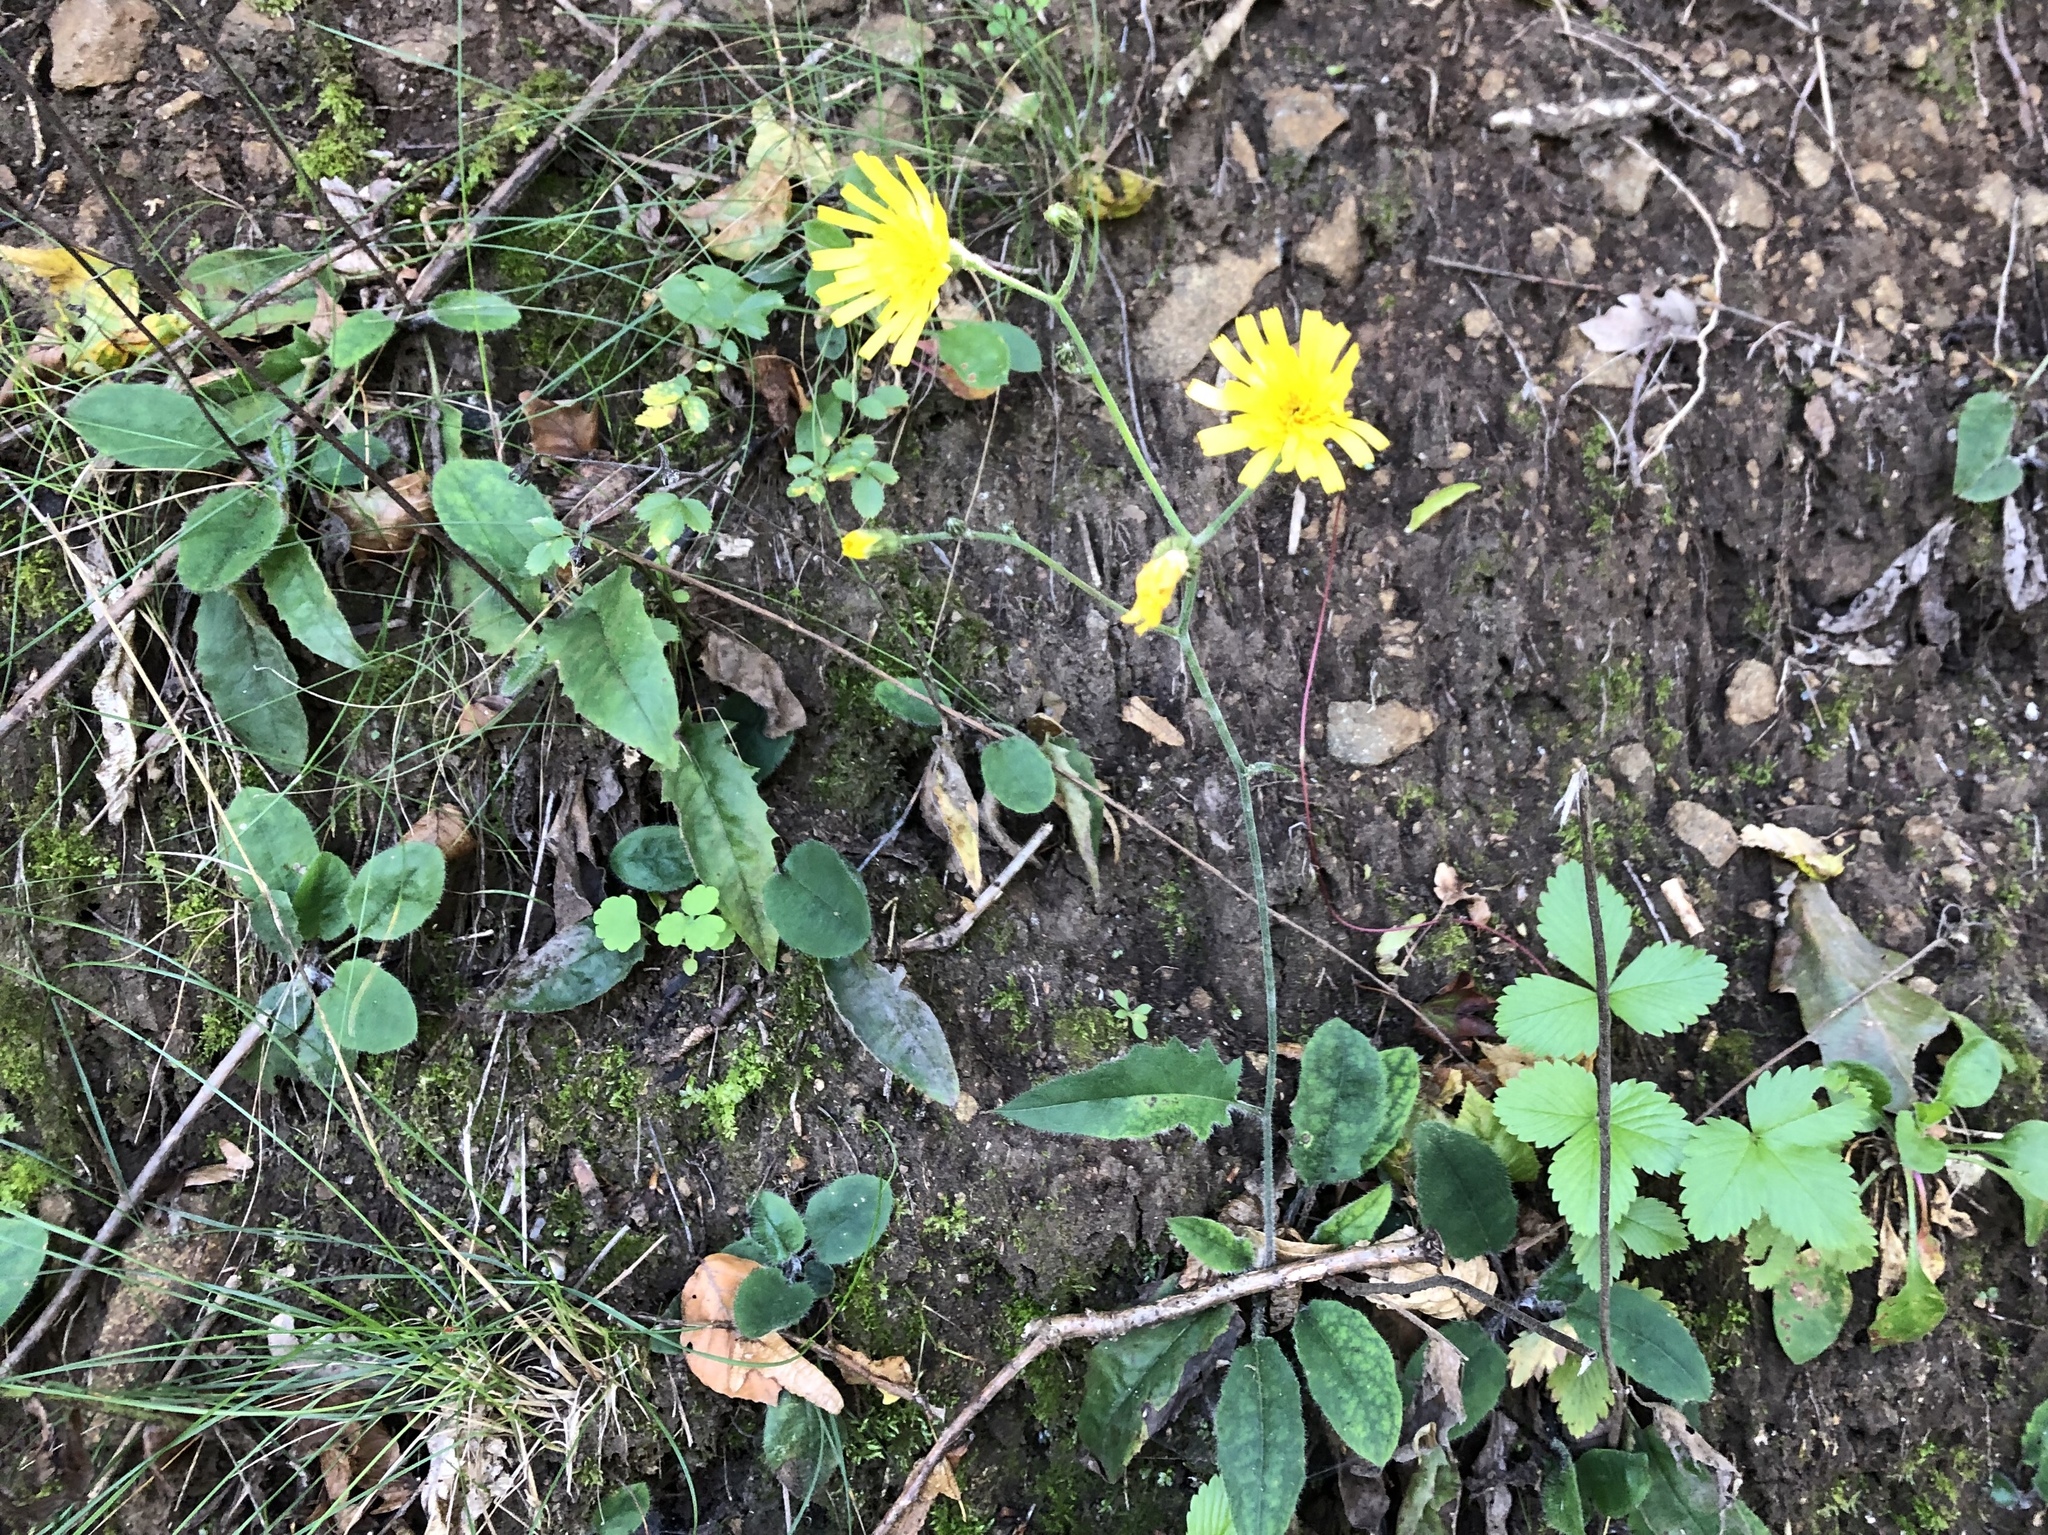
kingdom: Plantae
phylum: Tracheophyta
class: Magnoliopsida
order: Asterales
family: Asteraceae
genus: Hieracium
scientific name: Hieracium murorum
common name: Wall hawkweed
